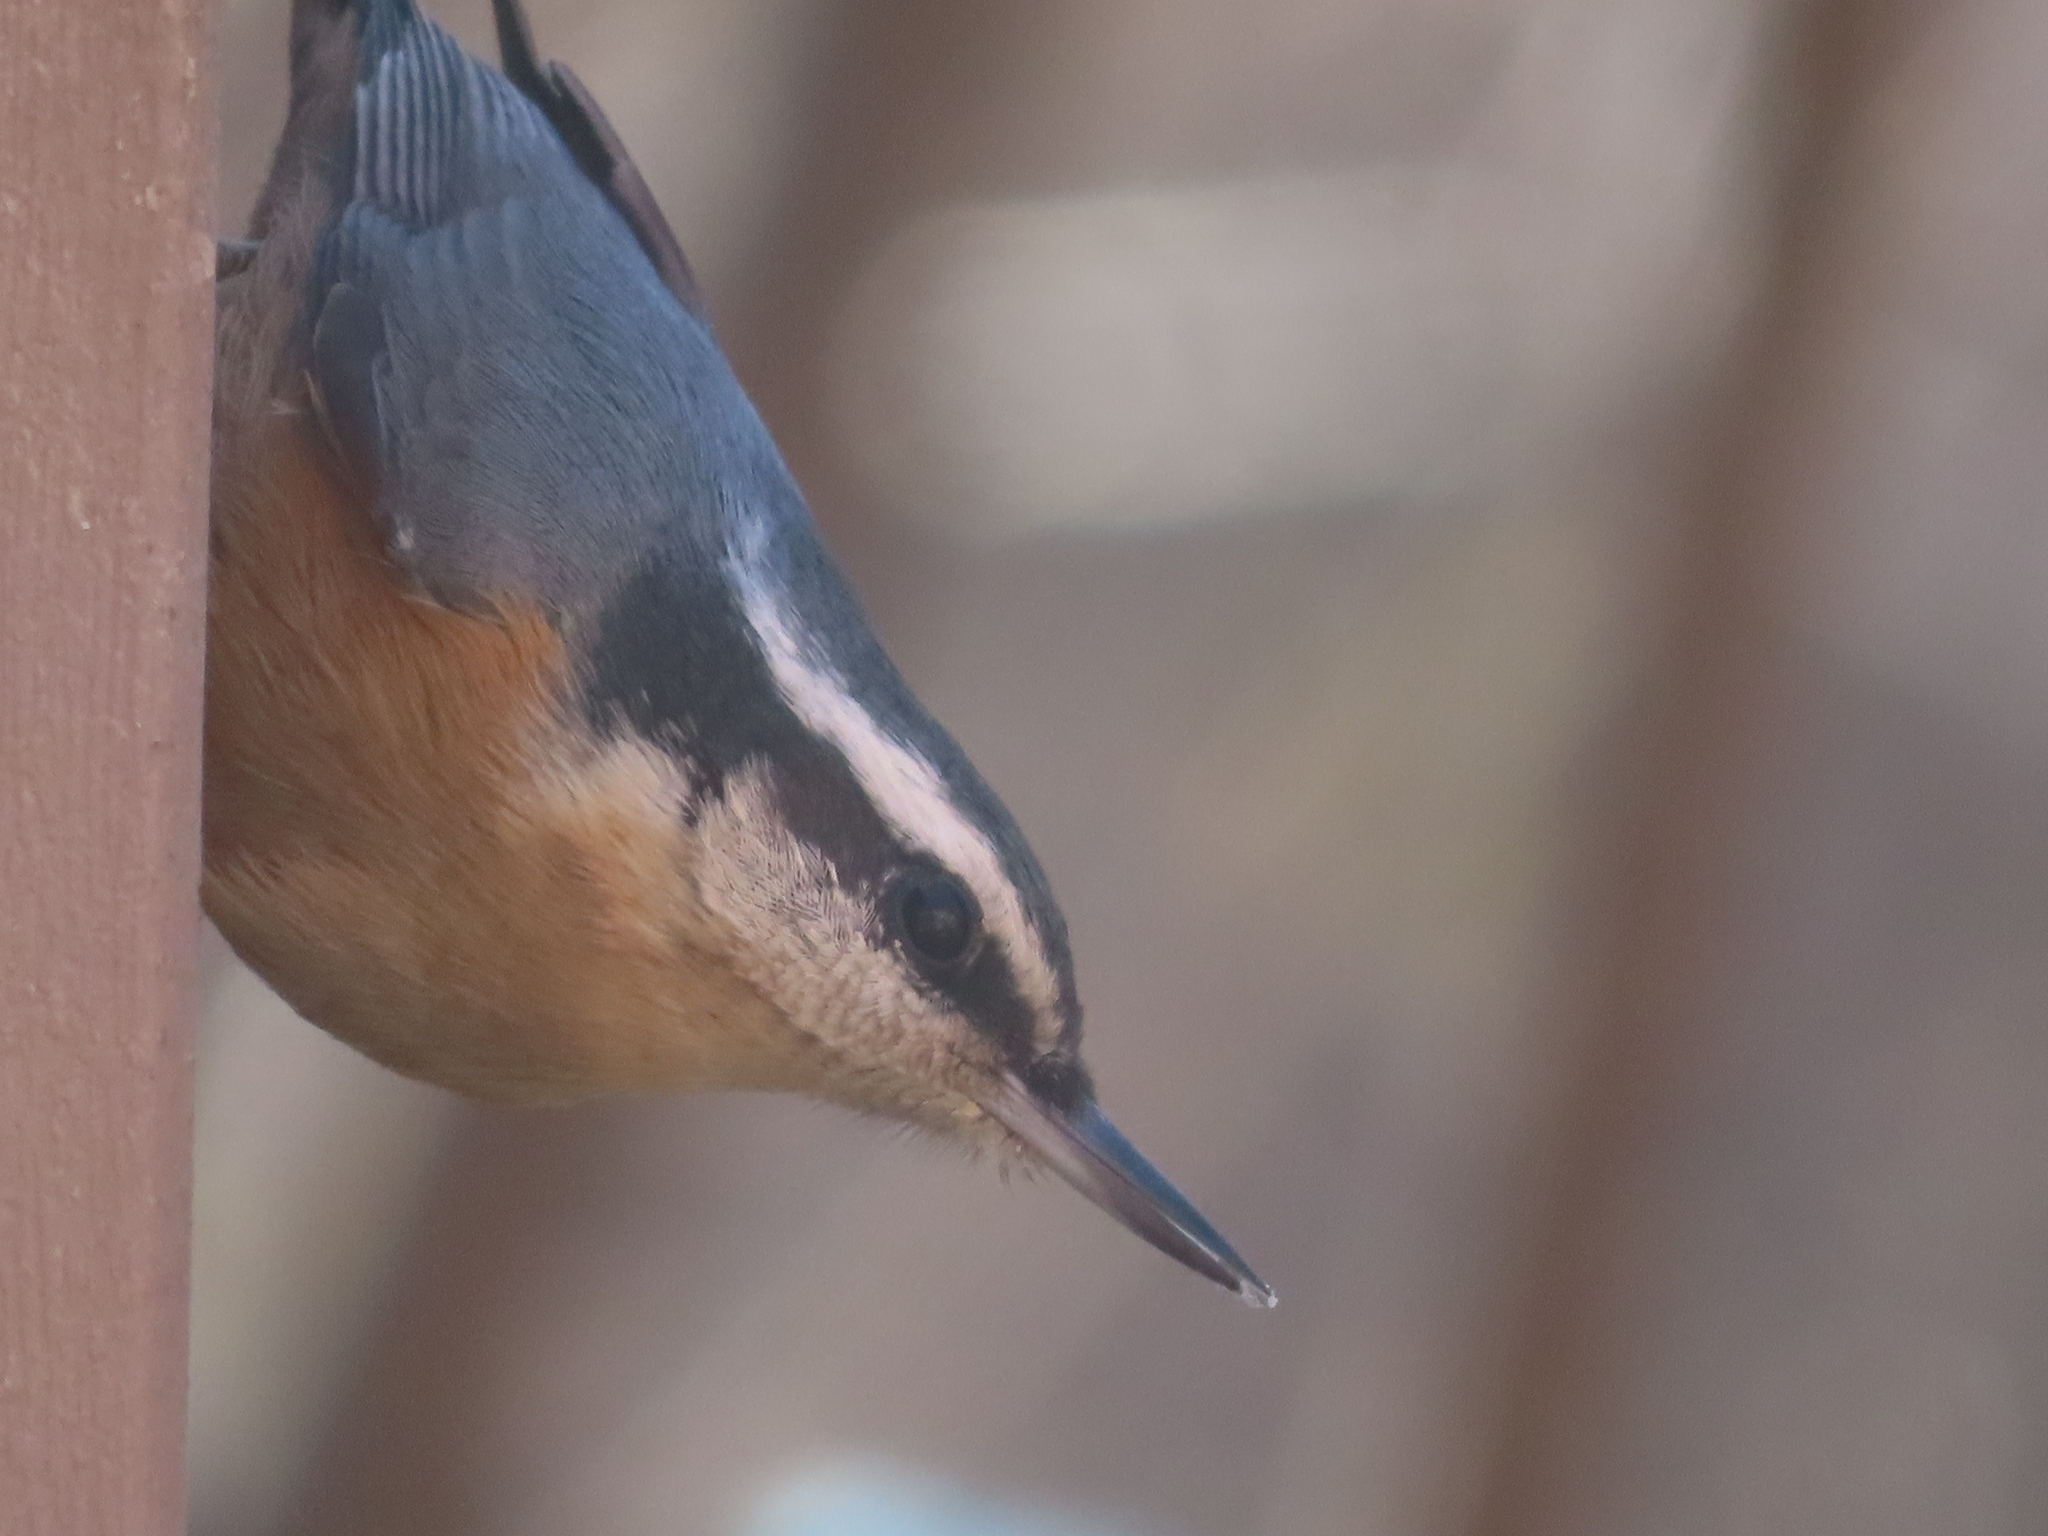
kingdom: Animalia
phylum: Chordata
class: Aves
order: Passeriformes
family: Sittidae
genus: Sitta
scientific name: Sitta canadensis
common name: Red-breasted nuthatch
